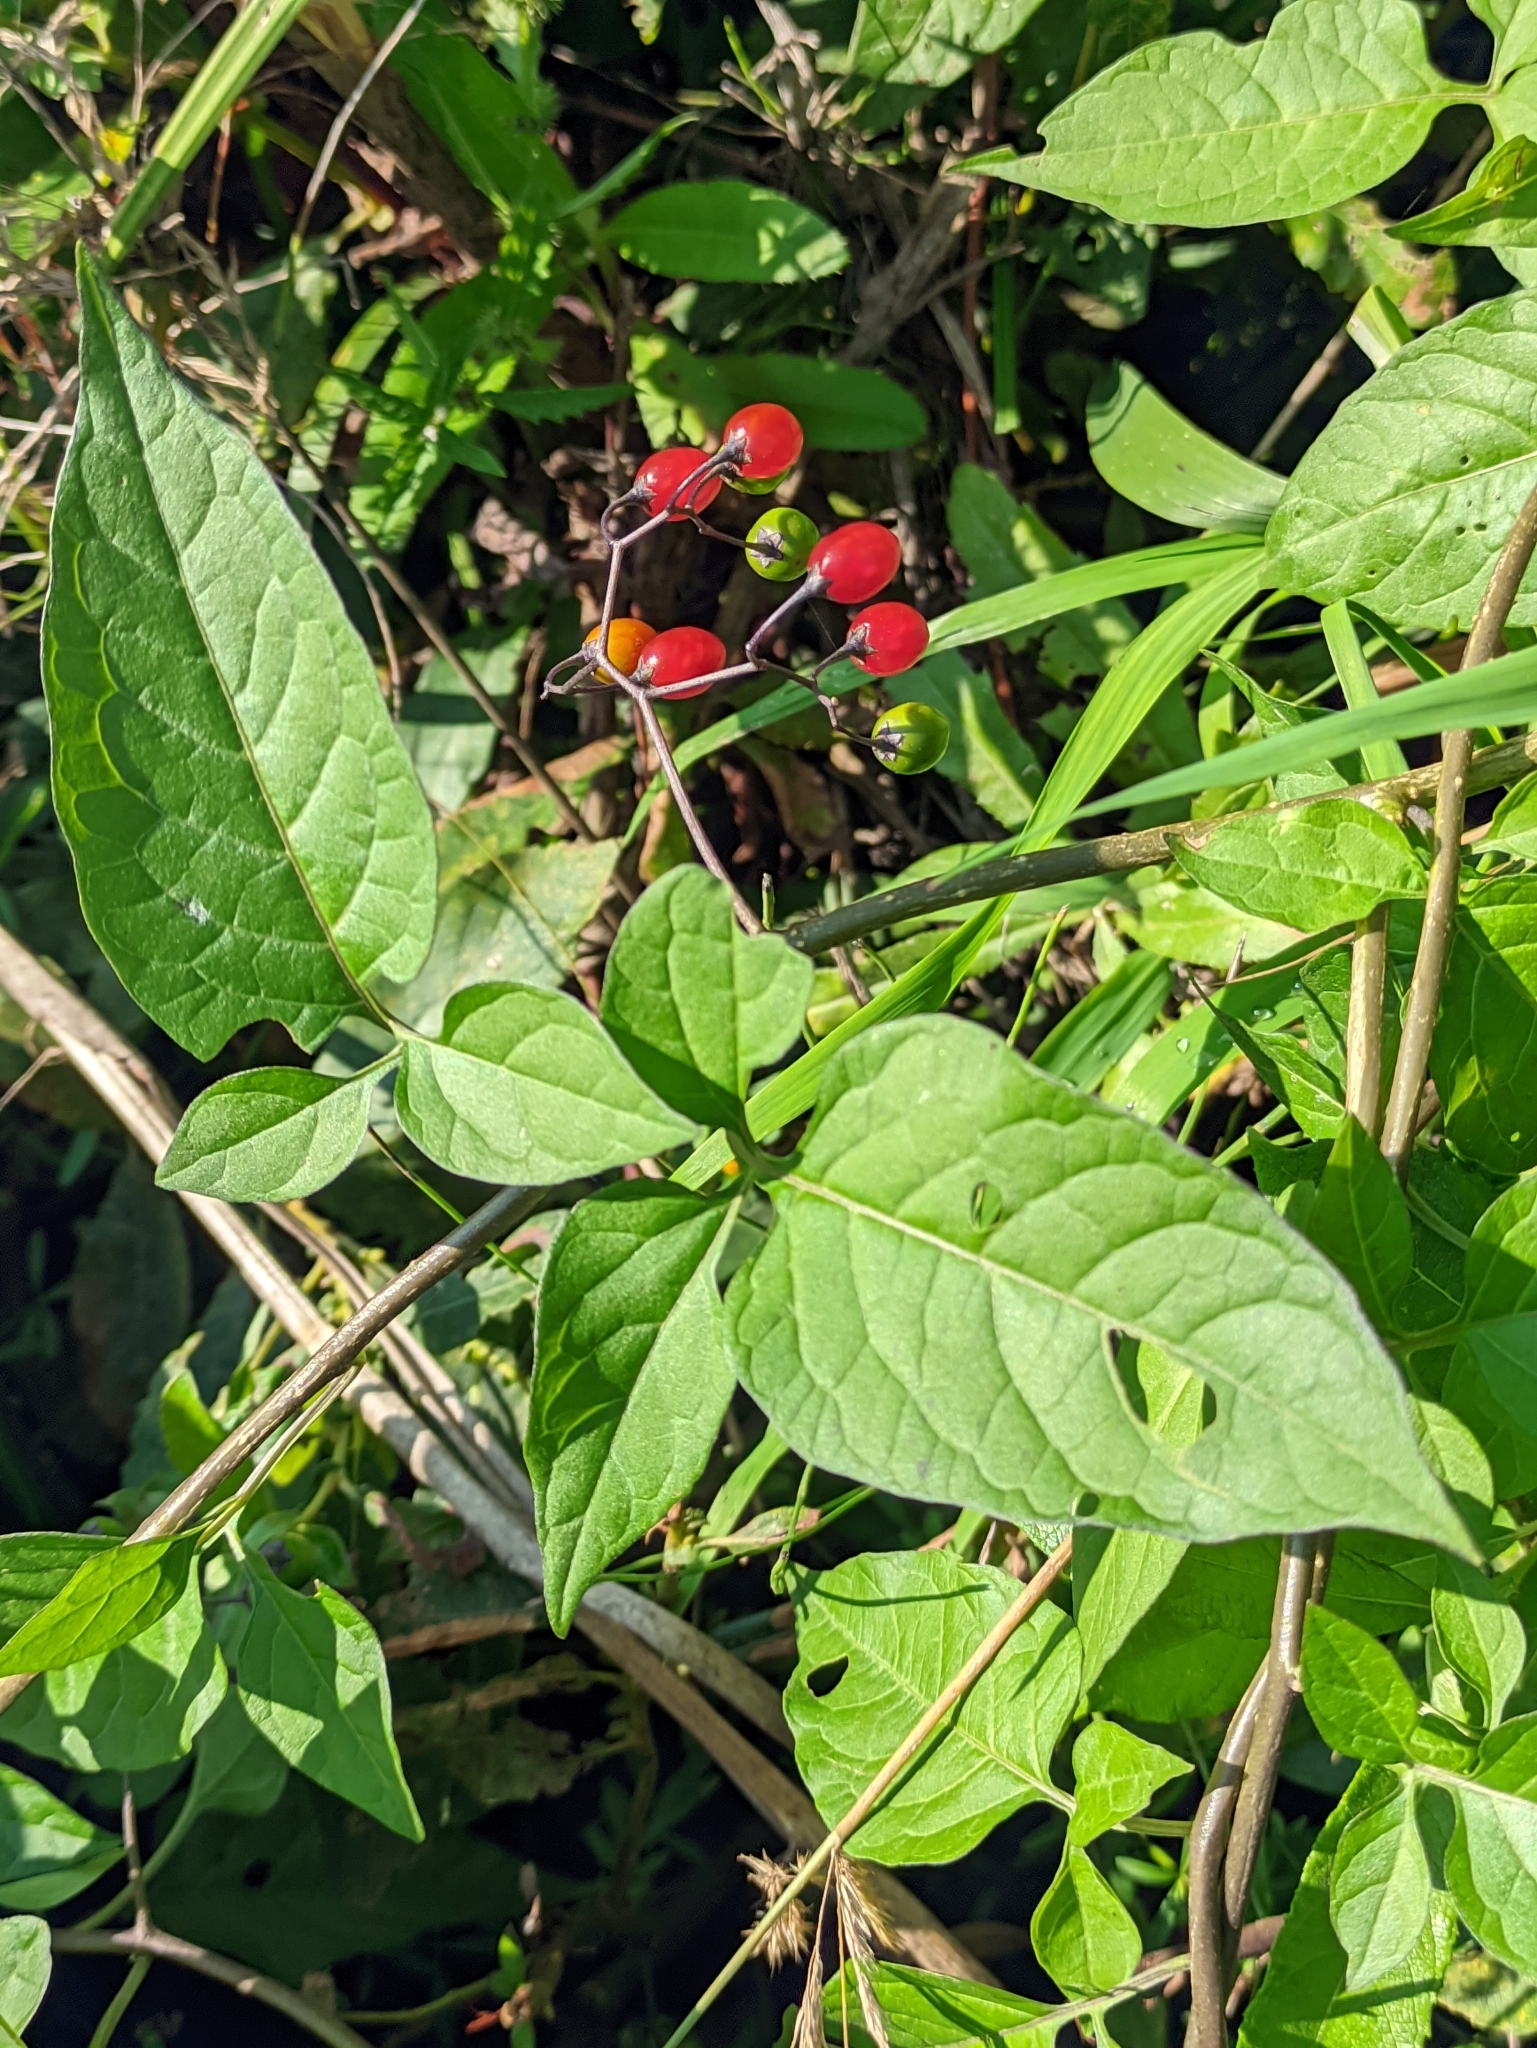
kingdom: Plantae
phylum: Tracheophyta
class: Magnoliopsida
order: Solanales
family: Solanaceae
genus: Solanum
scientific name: Solanum dulcamara
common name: Climbing nightshade
